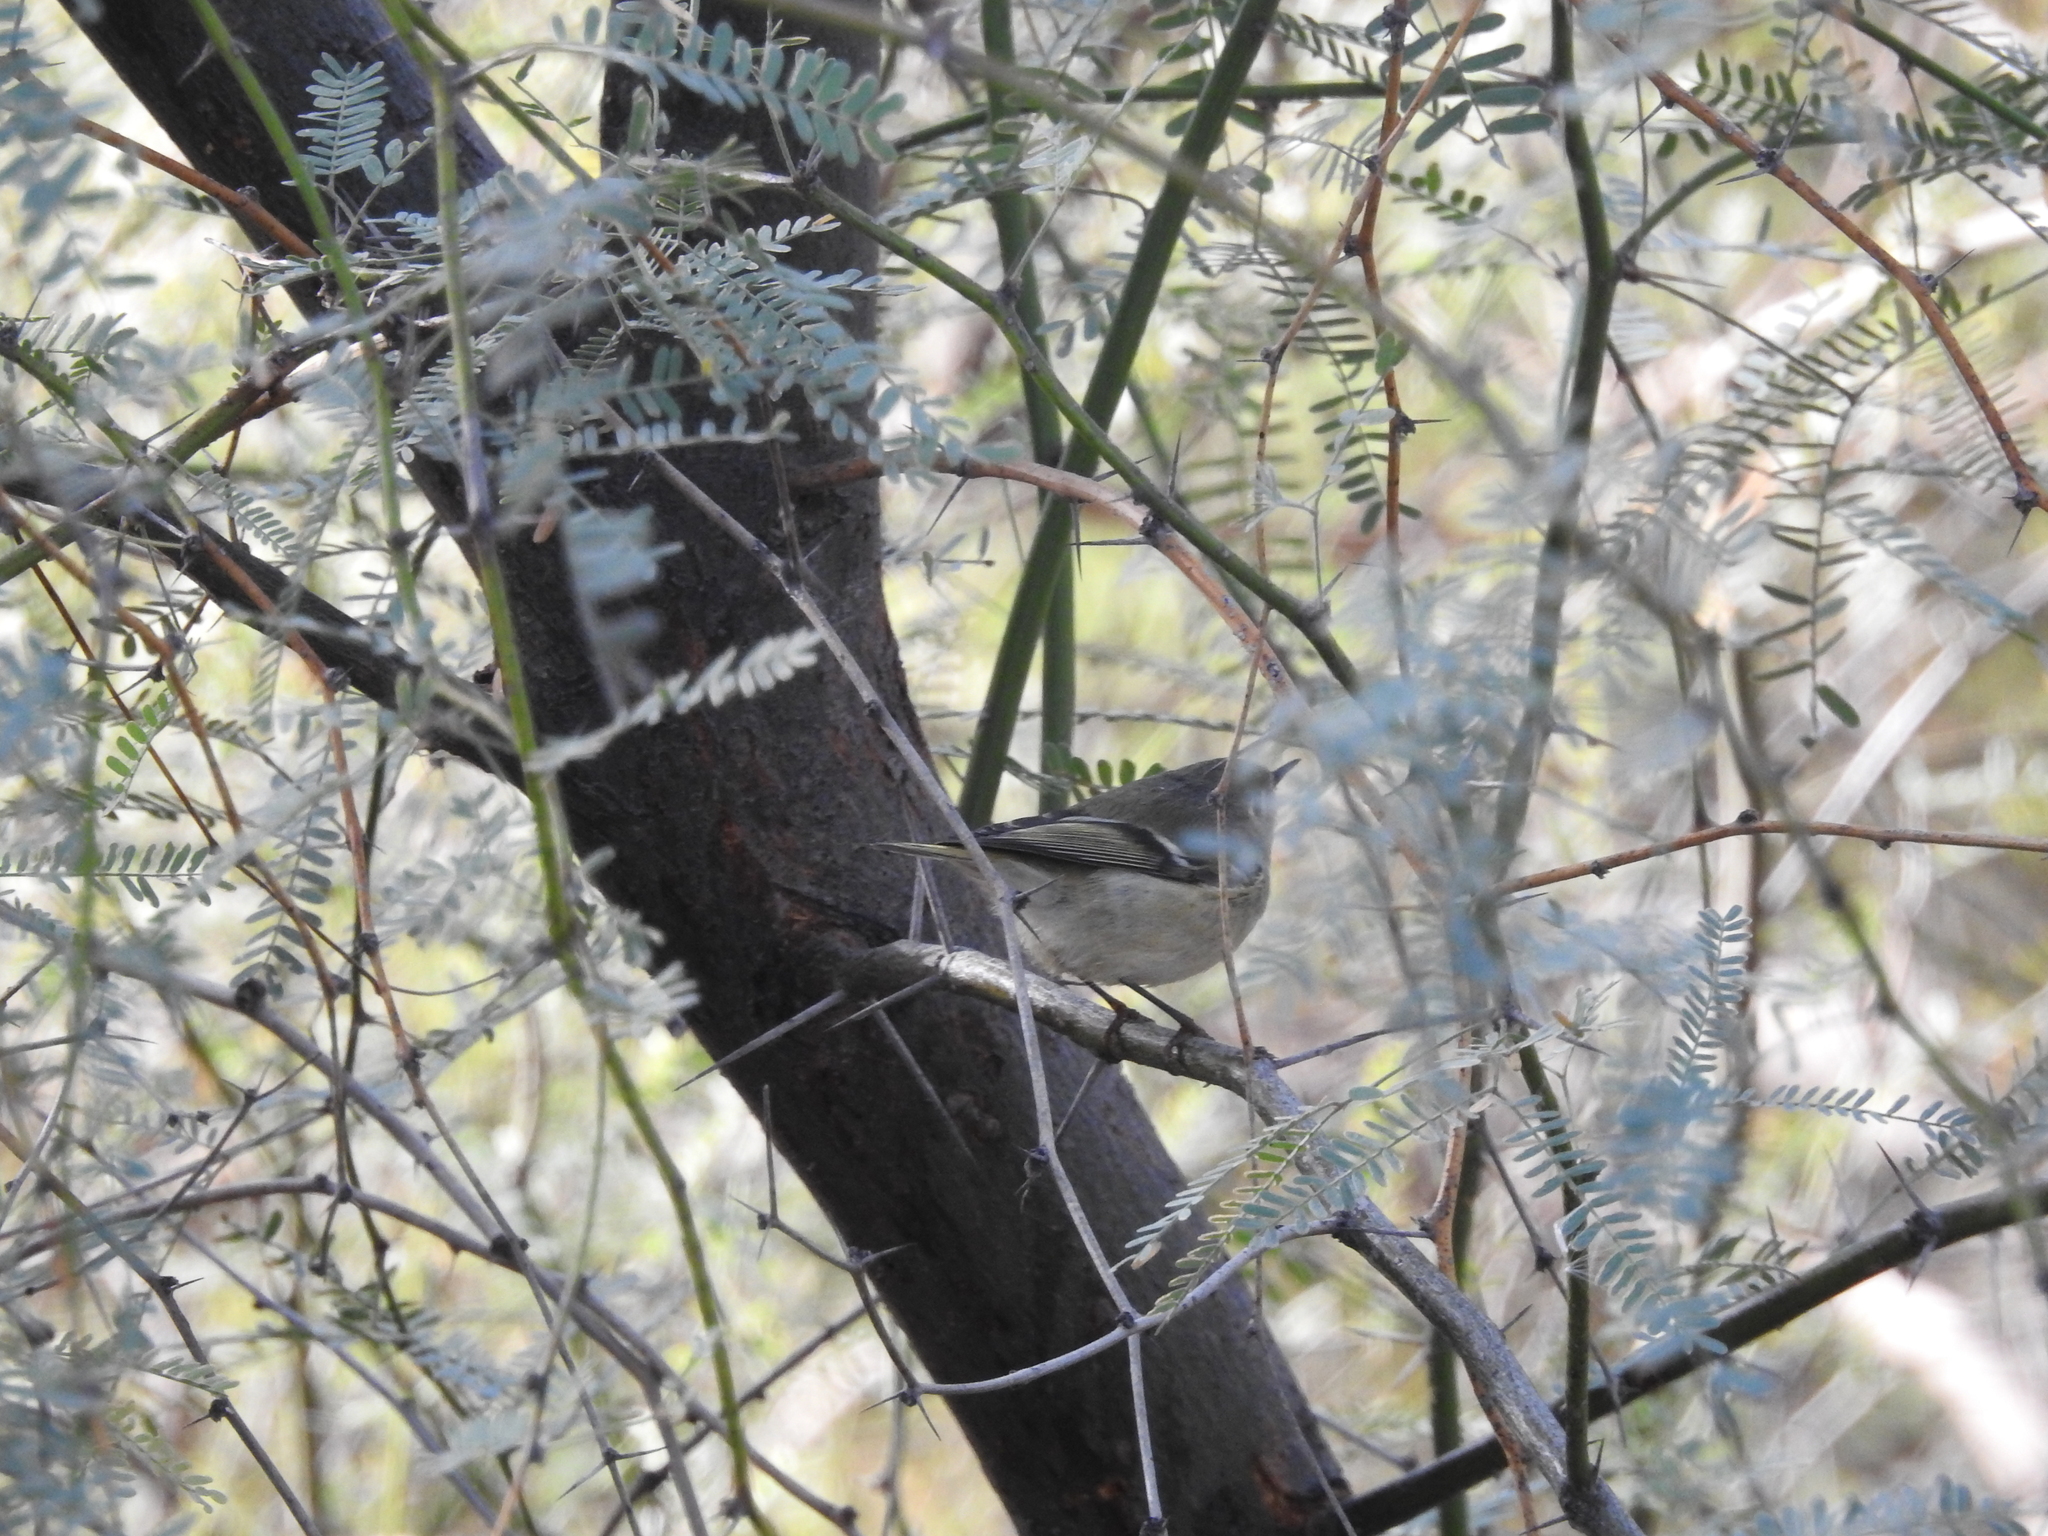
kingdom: Animalia
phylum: Chordata
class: Aves
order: Passeriformes
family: Regulidae
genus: Regulus
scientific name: Regulus calendula
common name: Ruby-crowned kinglet
